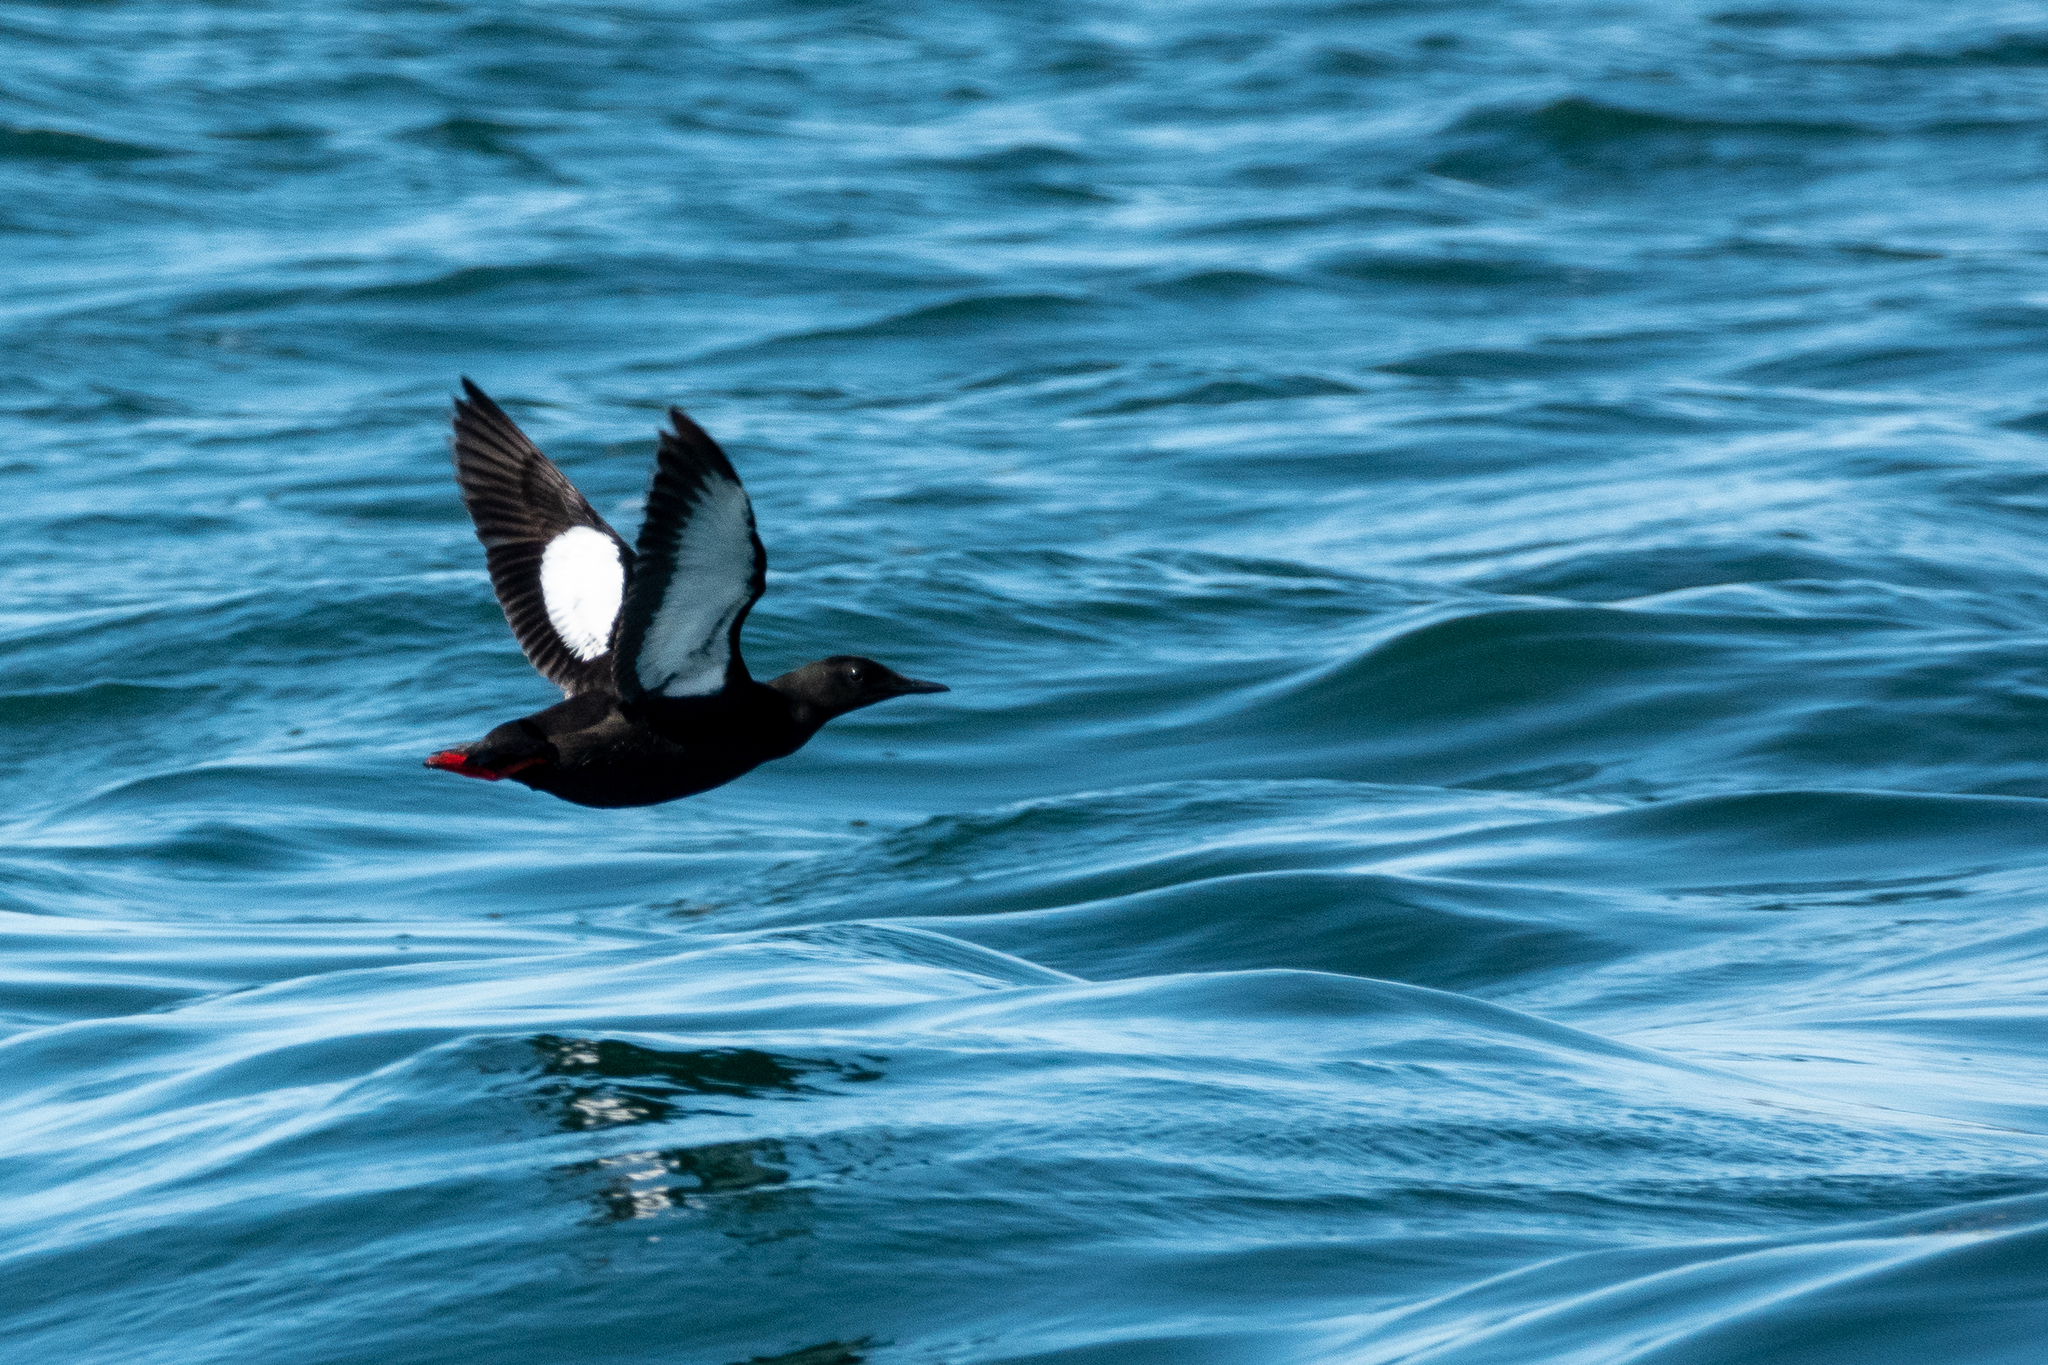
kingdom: Animalia
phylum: Chordata
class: Aves
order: Charadriiformes
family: Alcidae
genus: Cepphus
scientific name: Cepphus grylle
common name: Black guillemot
